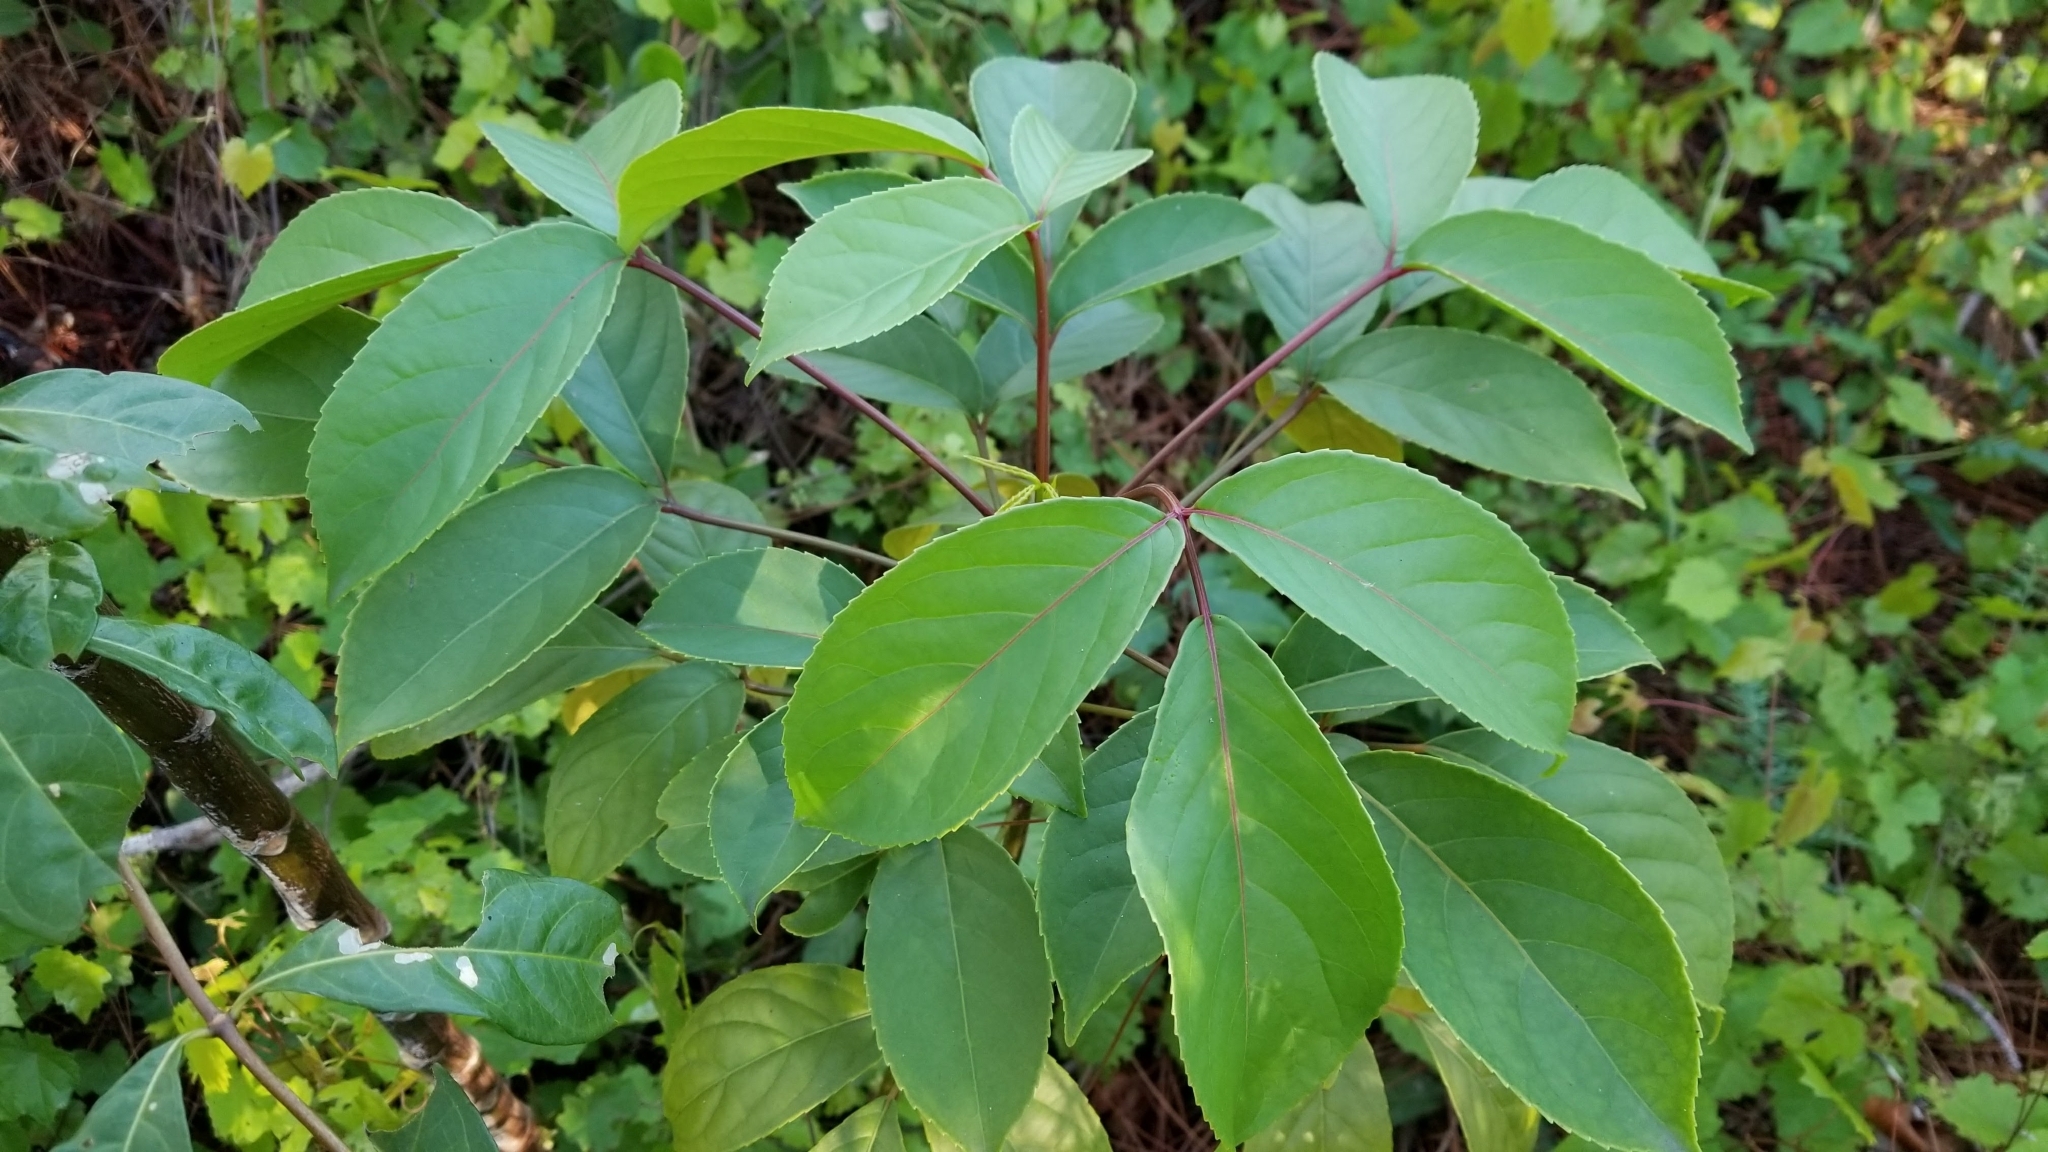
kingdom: Plantae
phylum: Tracheophyta
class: Magnoliopsida
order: Malpighiales
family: Phyllanthaceae
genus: Bischofia
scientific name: Bischofia javanica
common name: Javanese bishopwood
